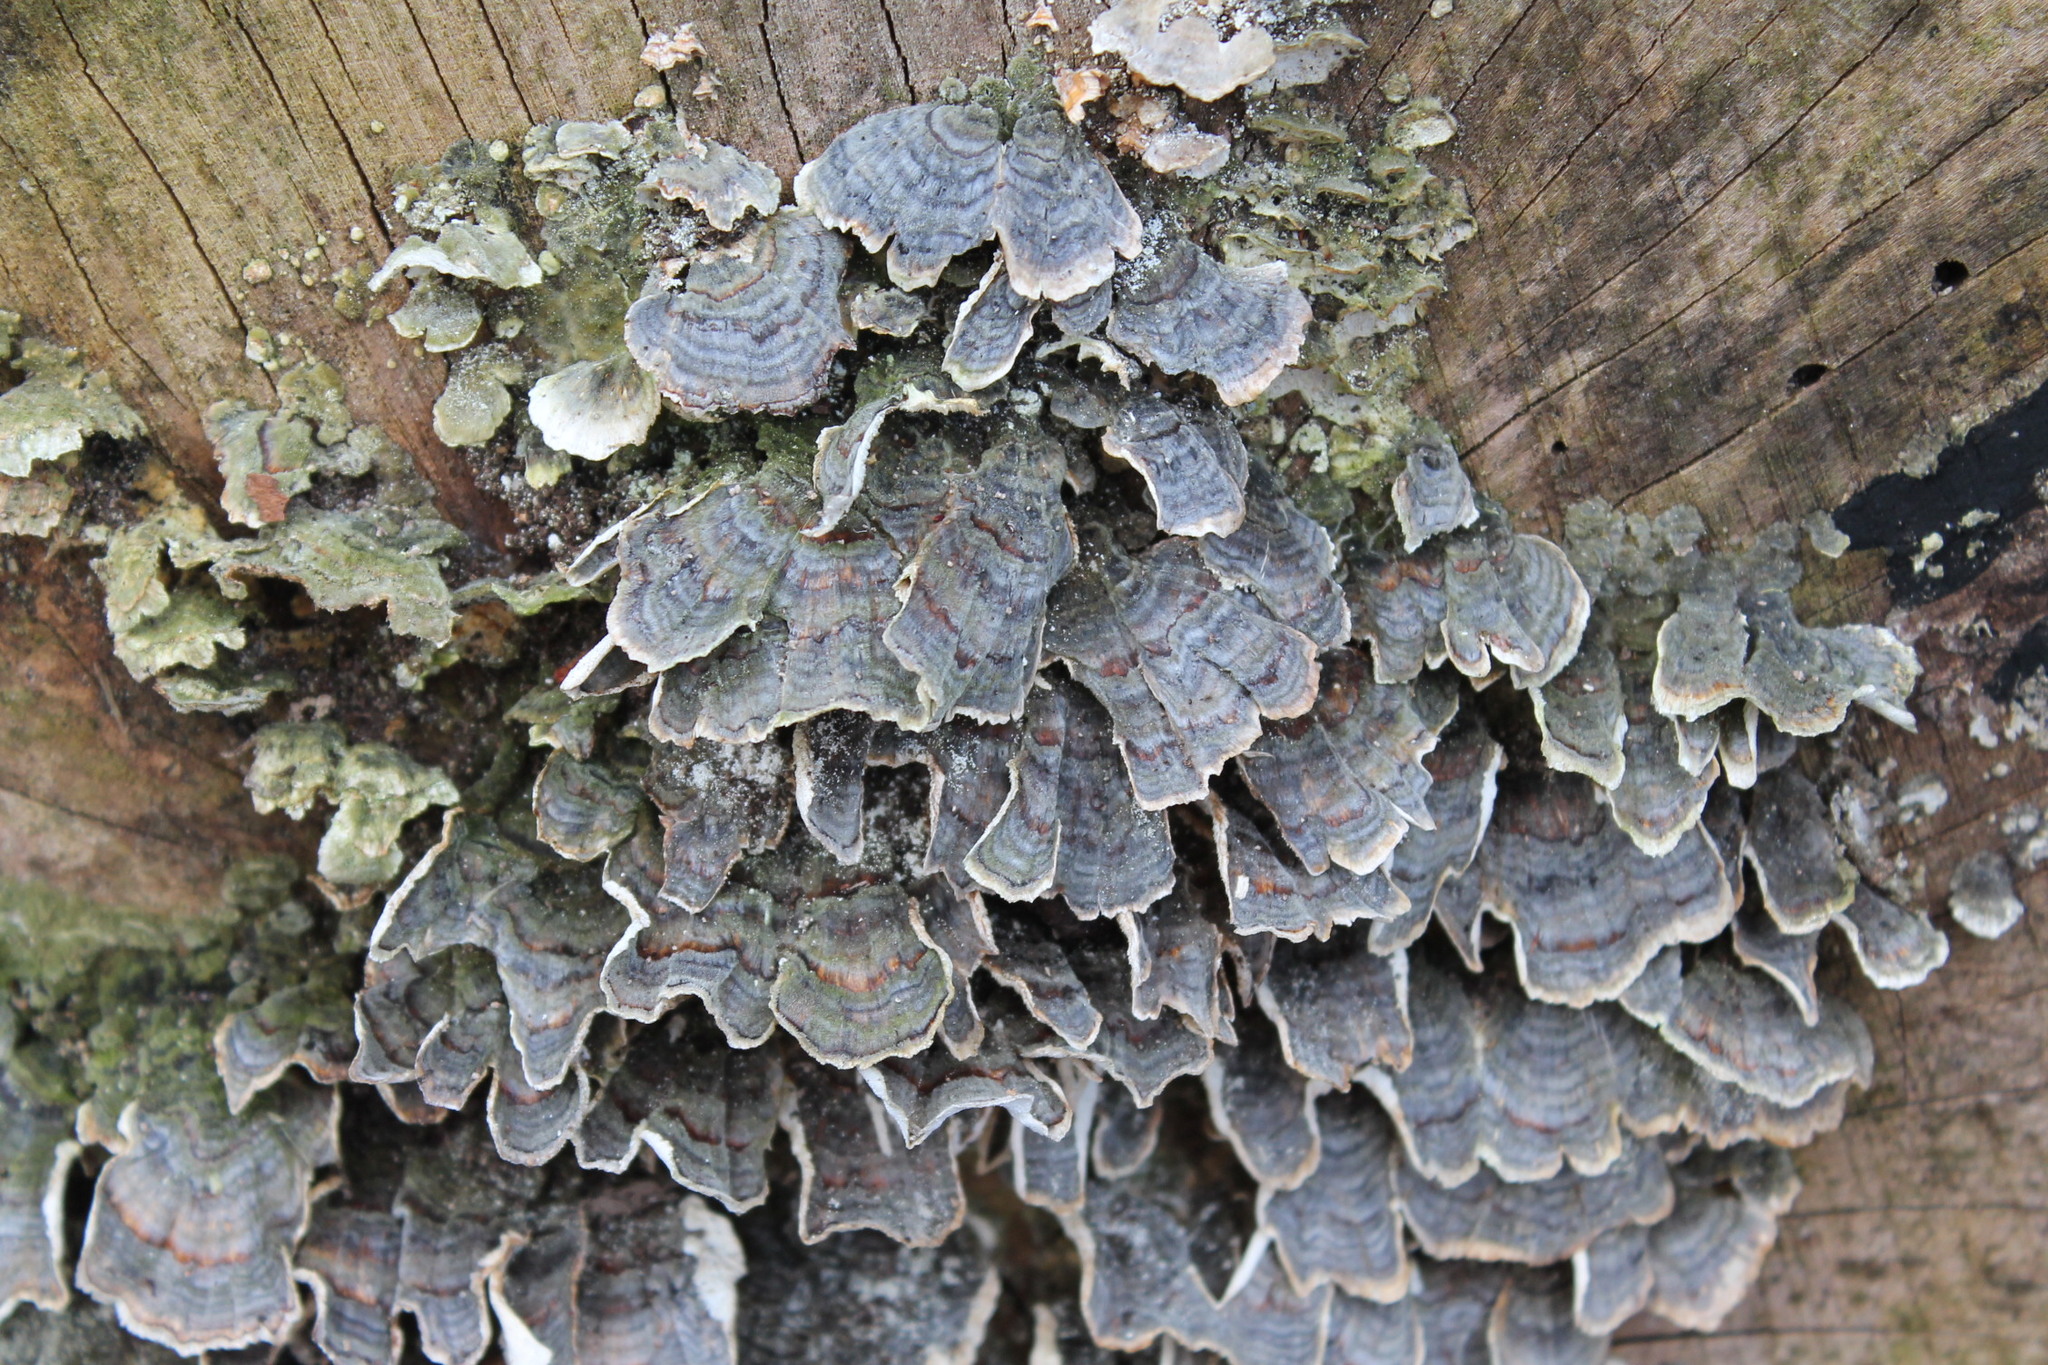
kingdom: Fungi
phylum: Basidiomycota
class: Agaricomycetes
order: Polyporales
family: Polyporaceae
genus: Trametes
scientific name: Trametes versicolor
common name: Turkeytail
